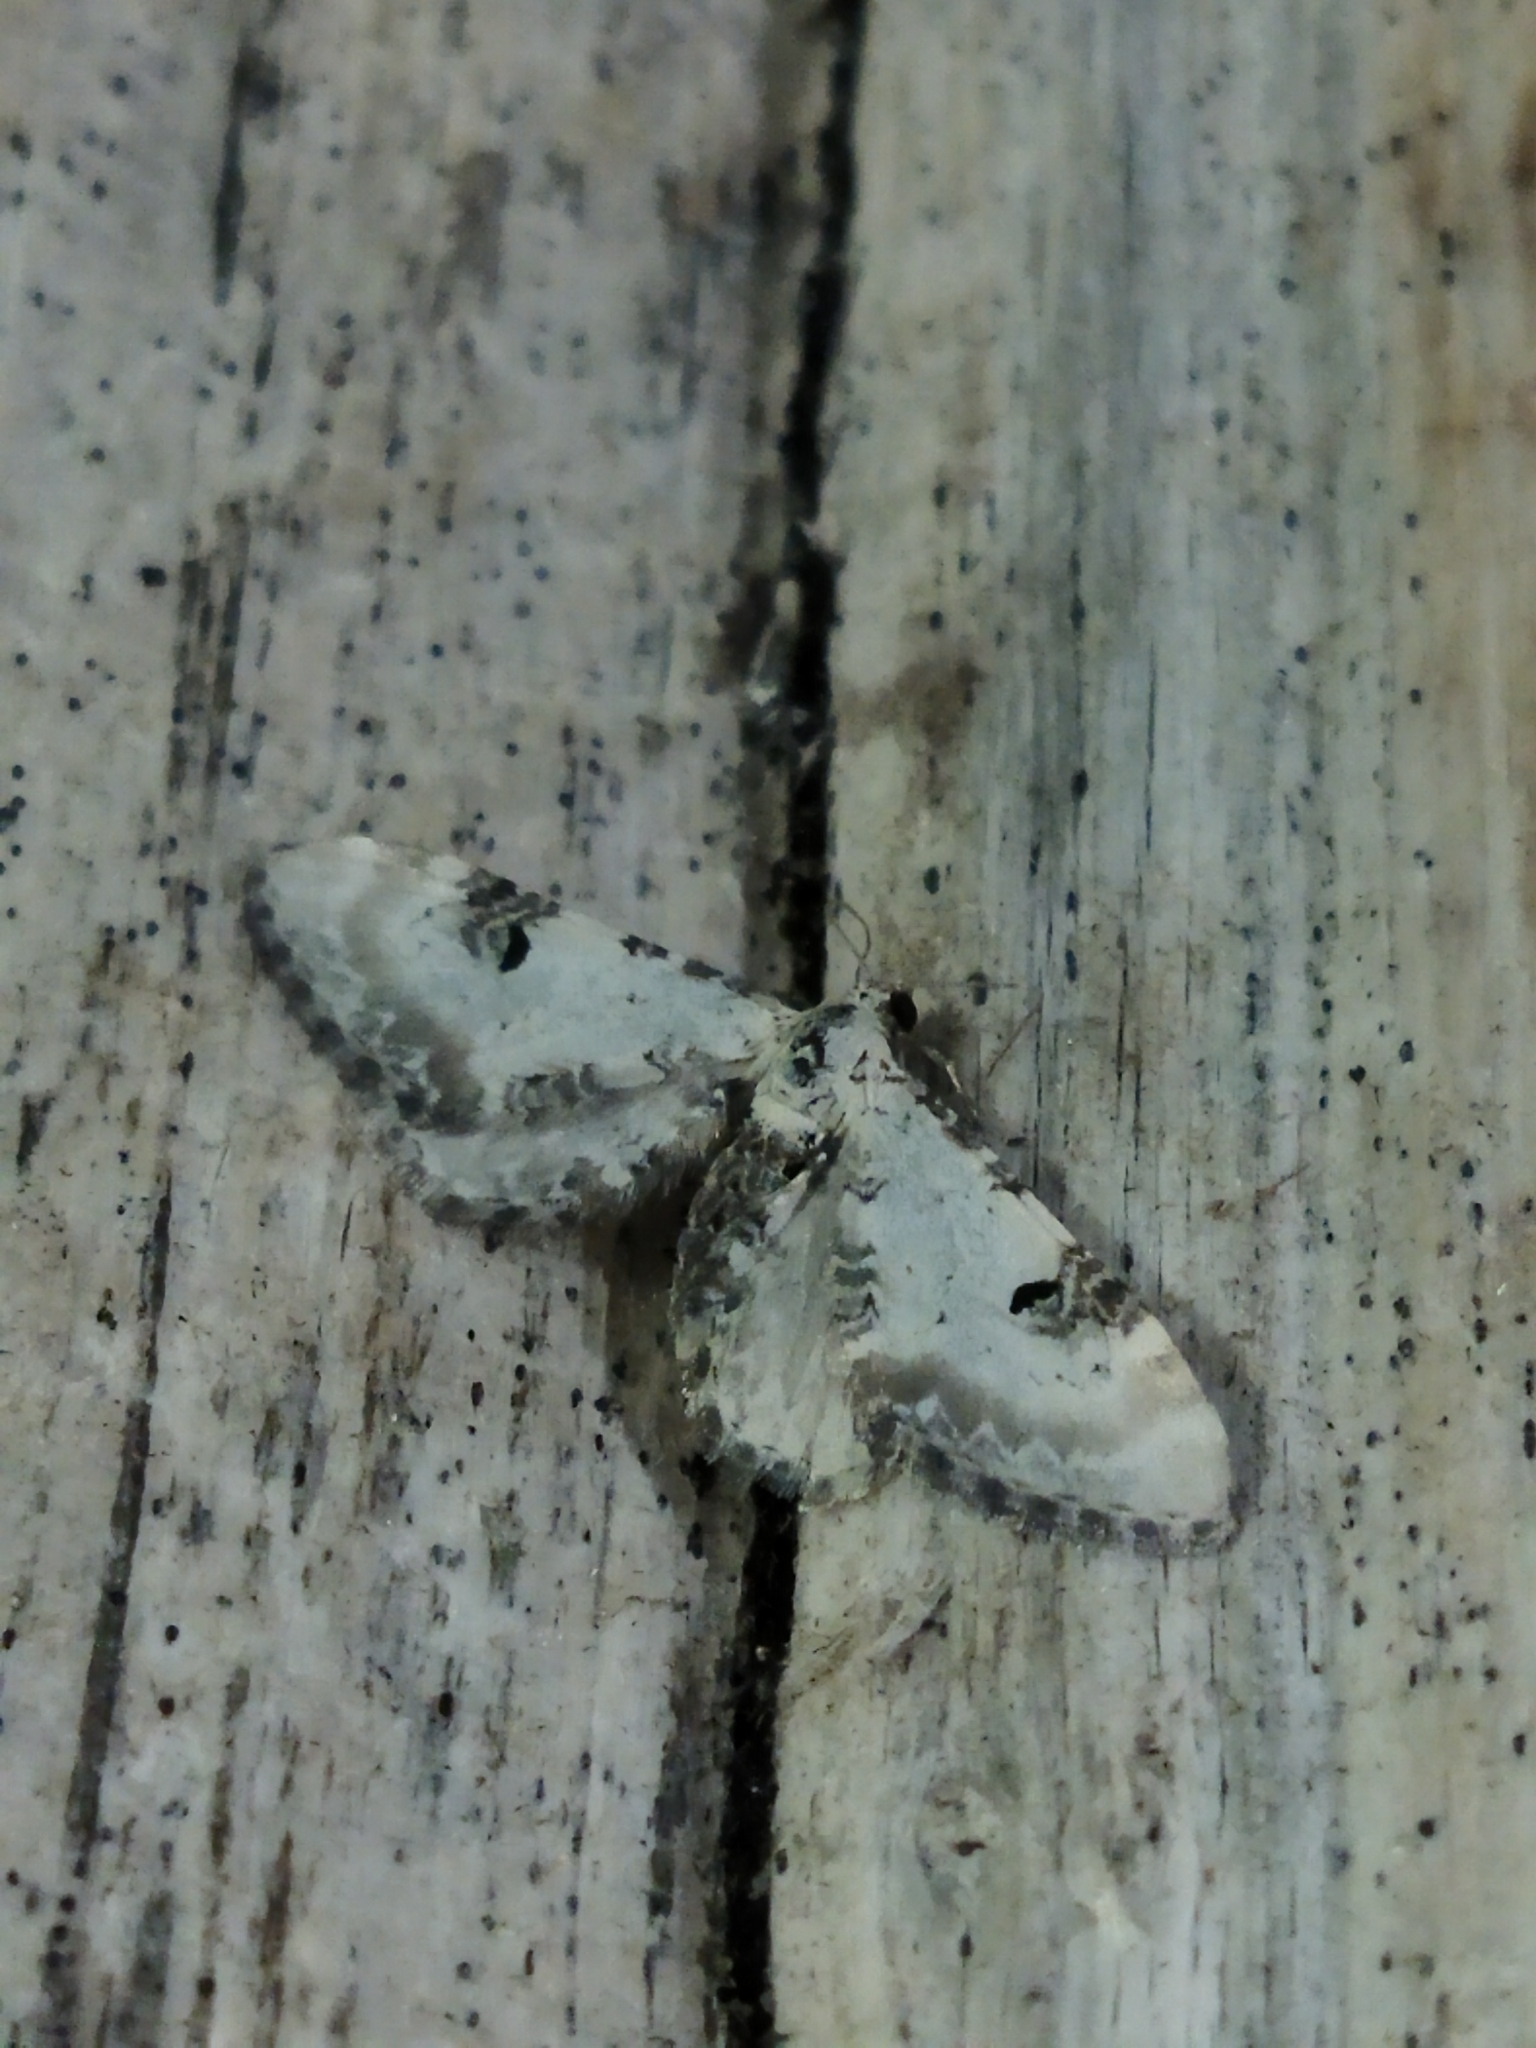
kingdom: Animalia
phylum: Arthropoda
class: Insecta
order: Lepidoptera
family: Geometridae
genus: Eupithecia
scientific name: Eupithecia centaureata
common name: Lime-speck pug
